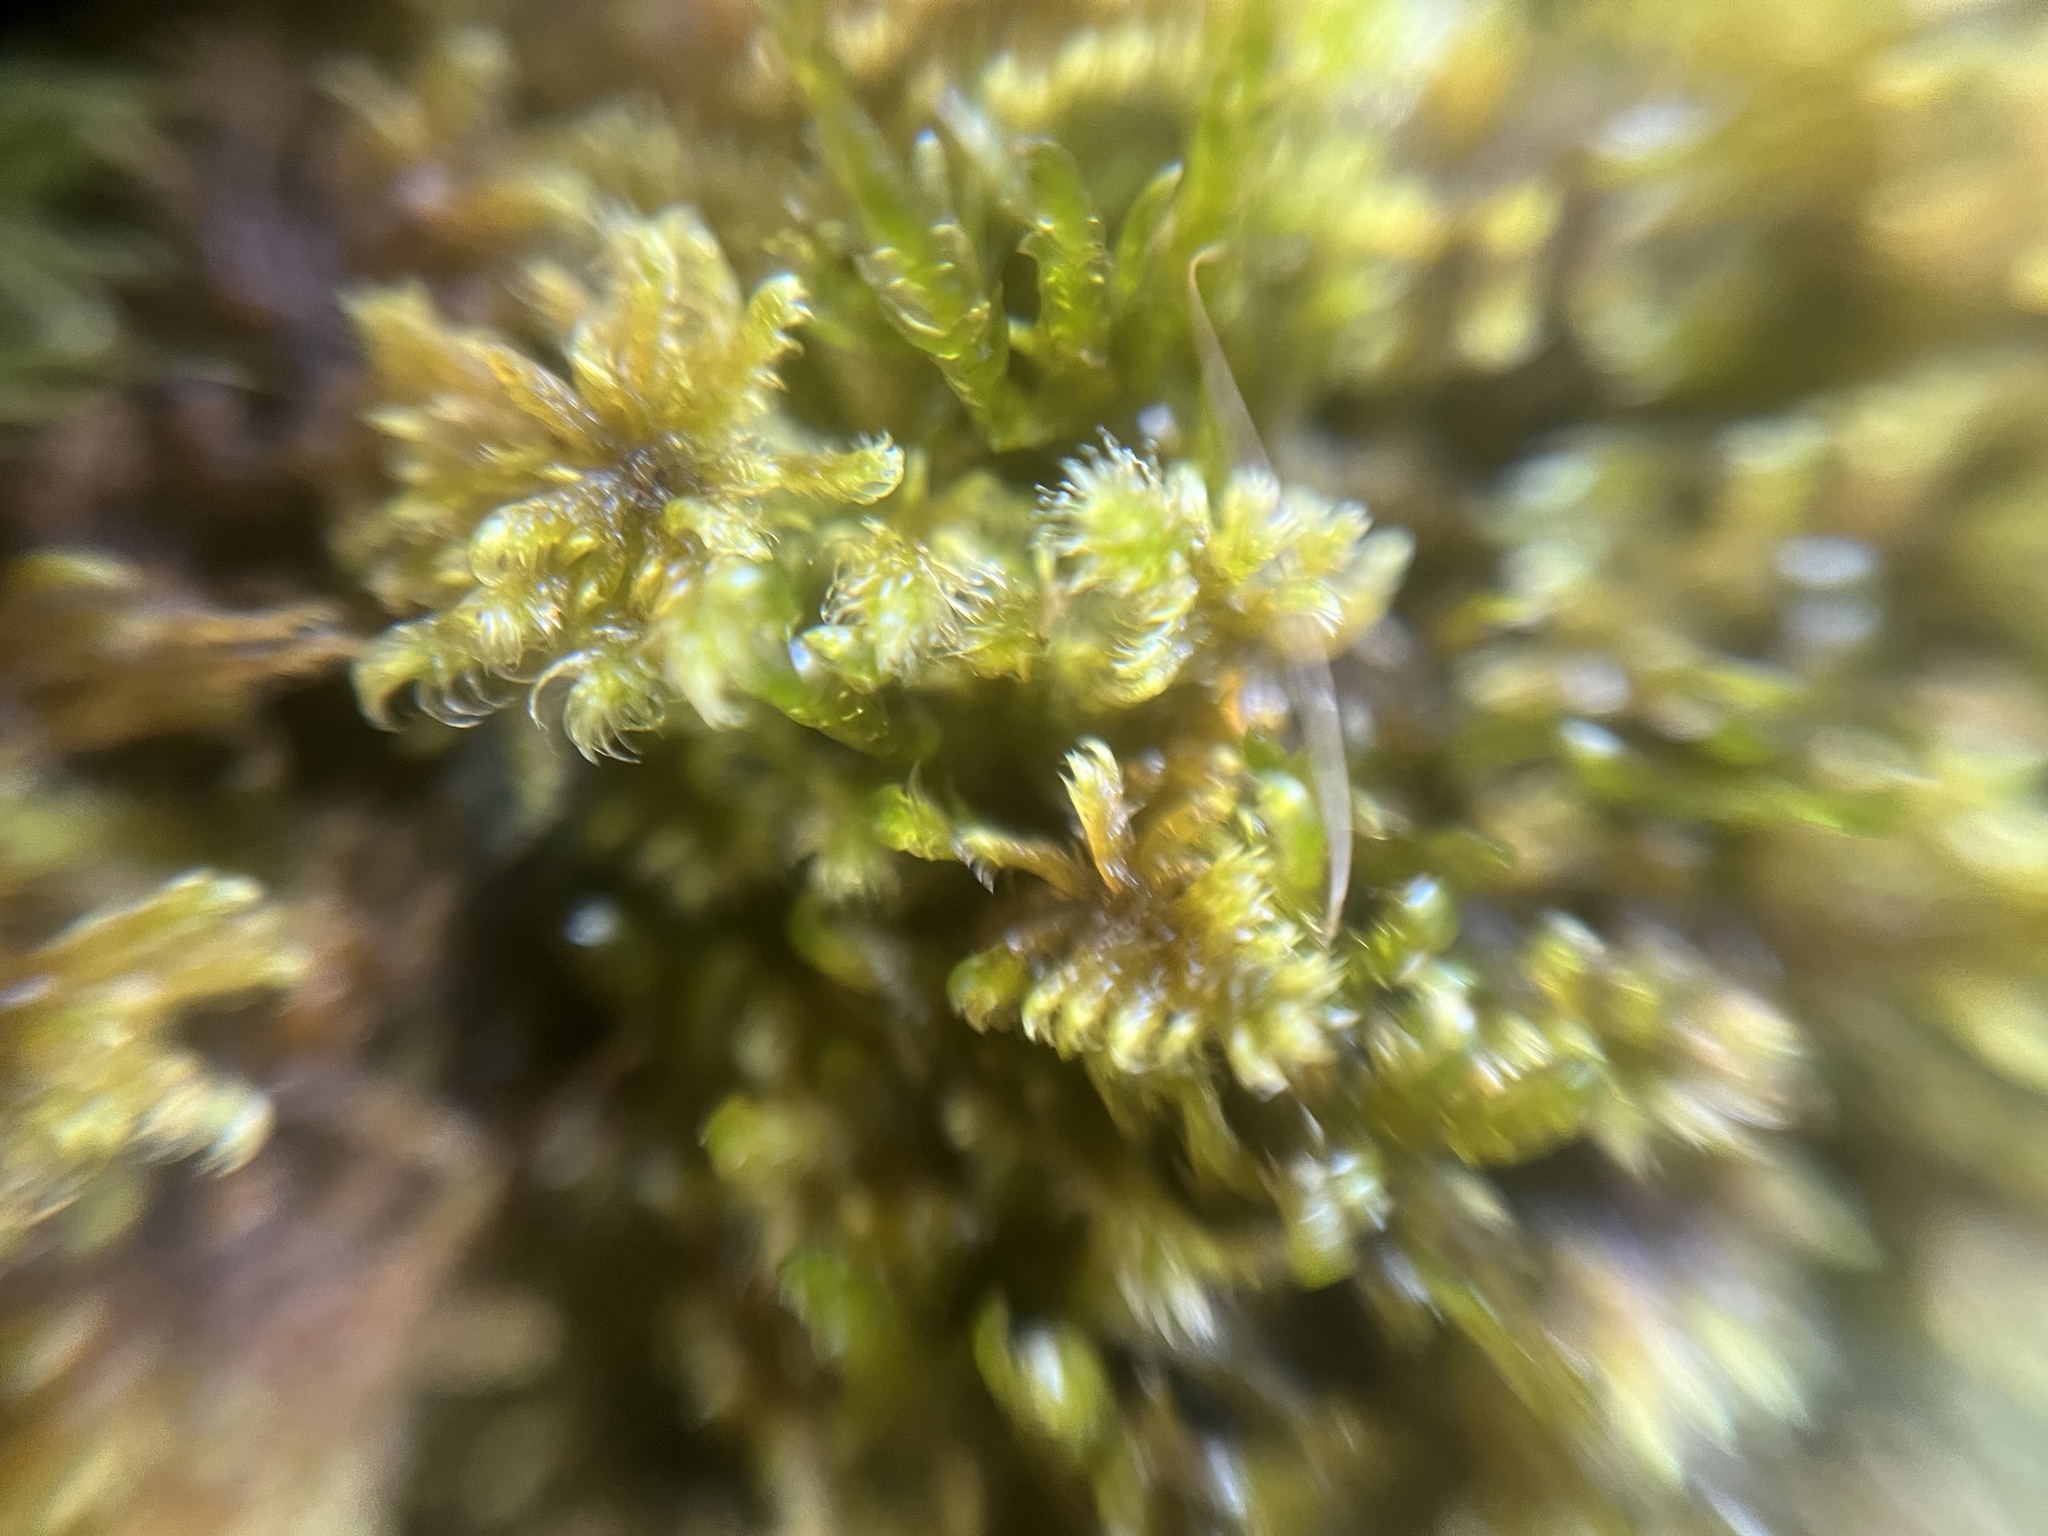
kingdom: Plantae
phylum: Bryophyta
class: Bryopsida
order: Hypnales
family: Myuriaceae
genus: Ctenidium
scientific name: Ctenidium molluscum
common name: Chalk comb-moss
